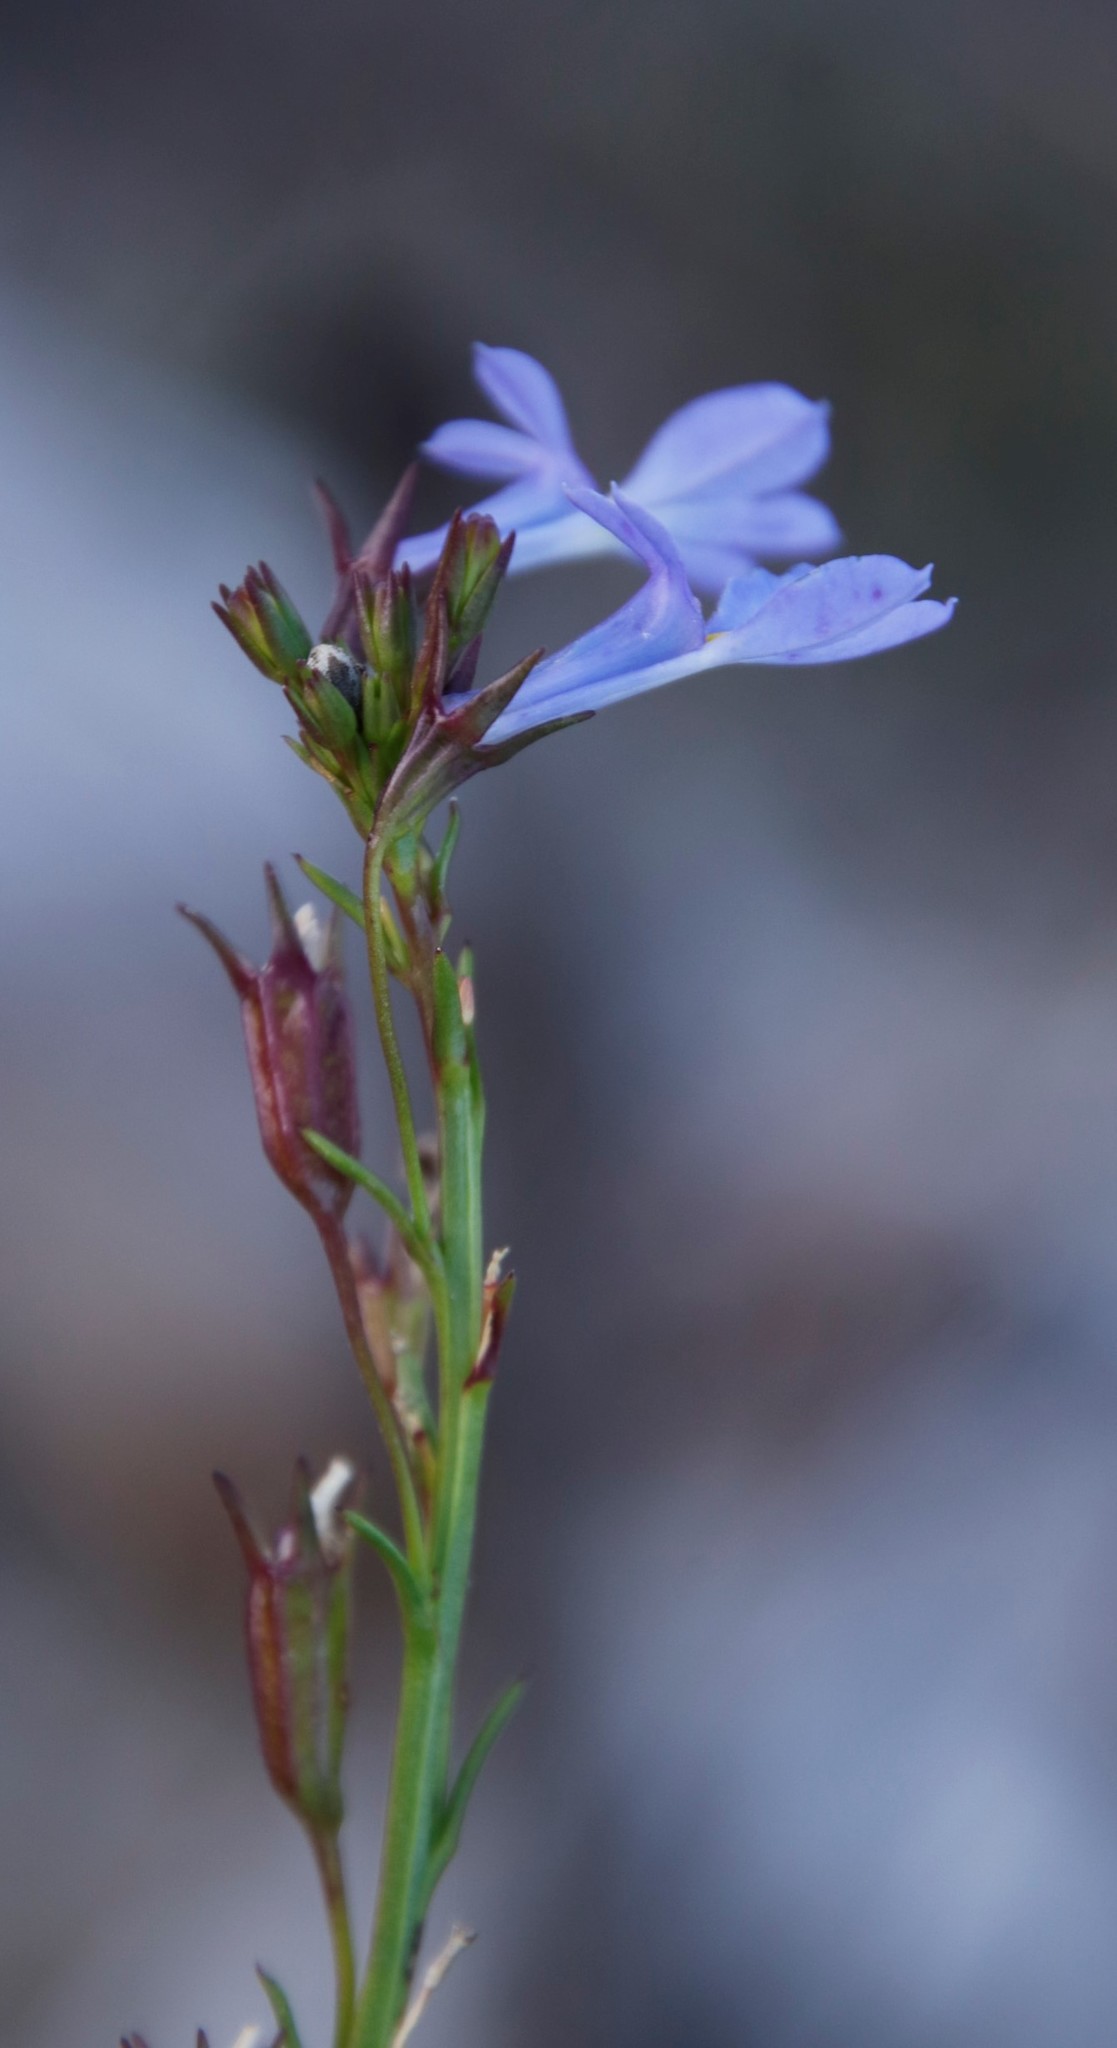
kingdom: Plantae
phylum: Tracheophyta
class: Magnoliopsida
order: Asterales
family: Campanulaceae
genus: Lobelia
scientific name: Lobelia comosa
